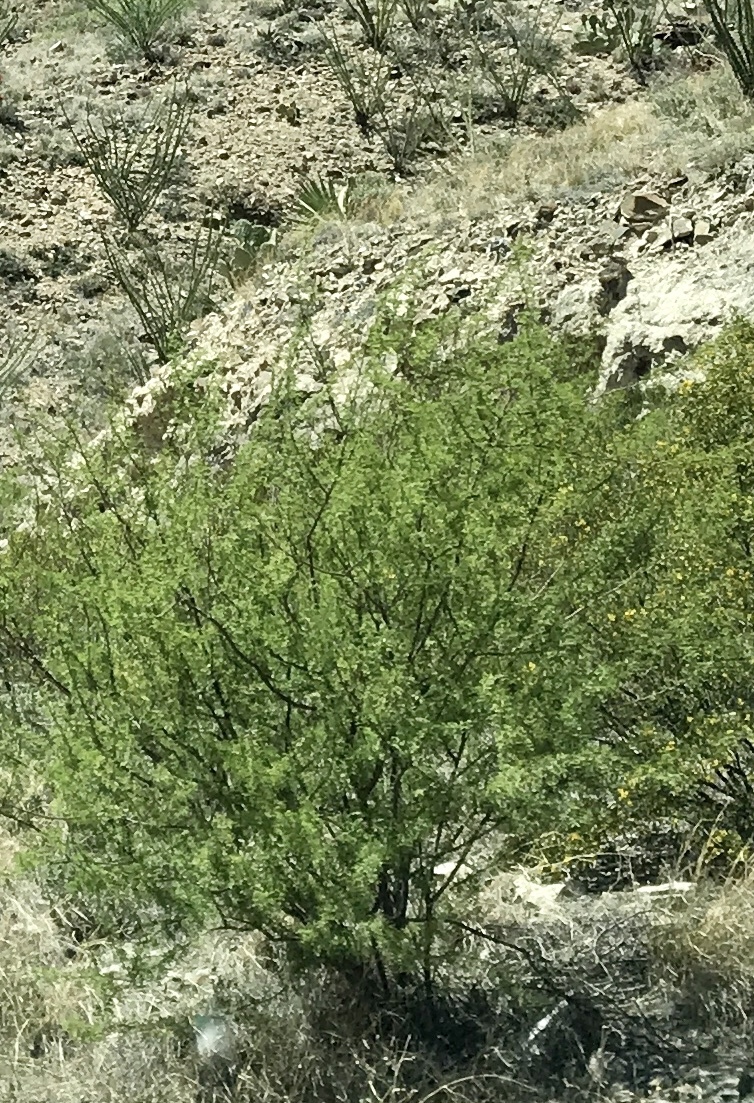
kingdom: Plantae
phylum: Tracheophyta
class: Magnoliopsida
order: Fabales
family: Fabaceae
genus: Prosopis
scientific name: Prosopis glandulosa
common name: Honey mesquite
